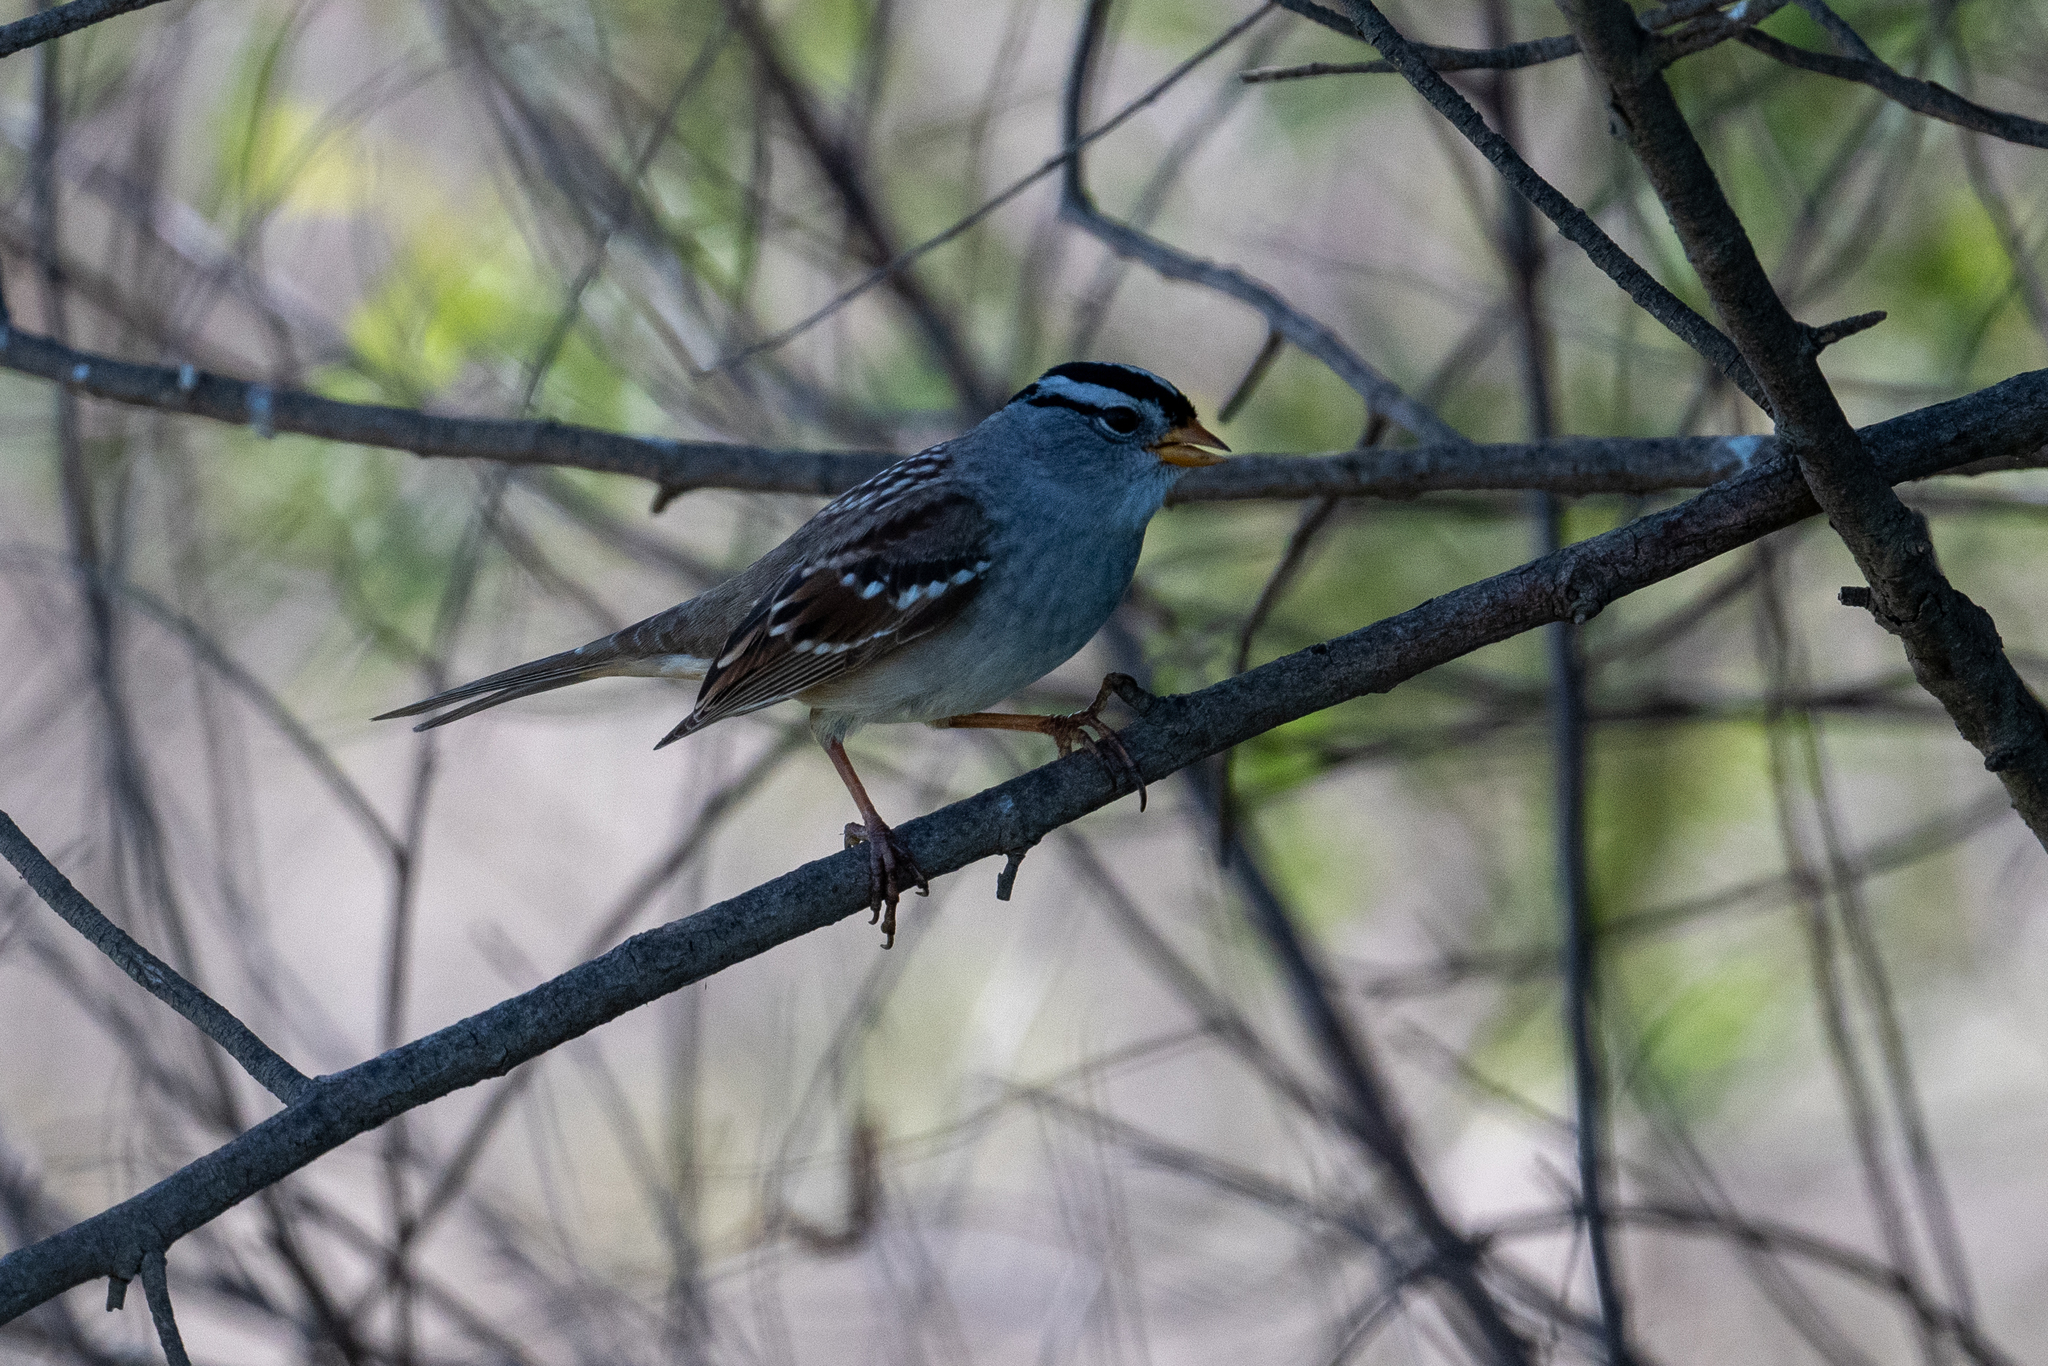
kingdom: Animalia
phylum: Chordata
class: Aves
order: Passeriformes
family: Passerellidae
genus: Zonotrichia
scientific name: Zonotrichia leucophrys
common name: White-crowned sparrow
